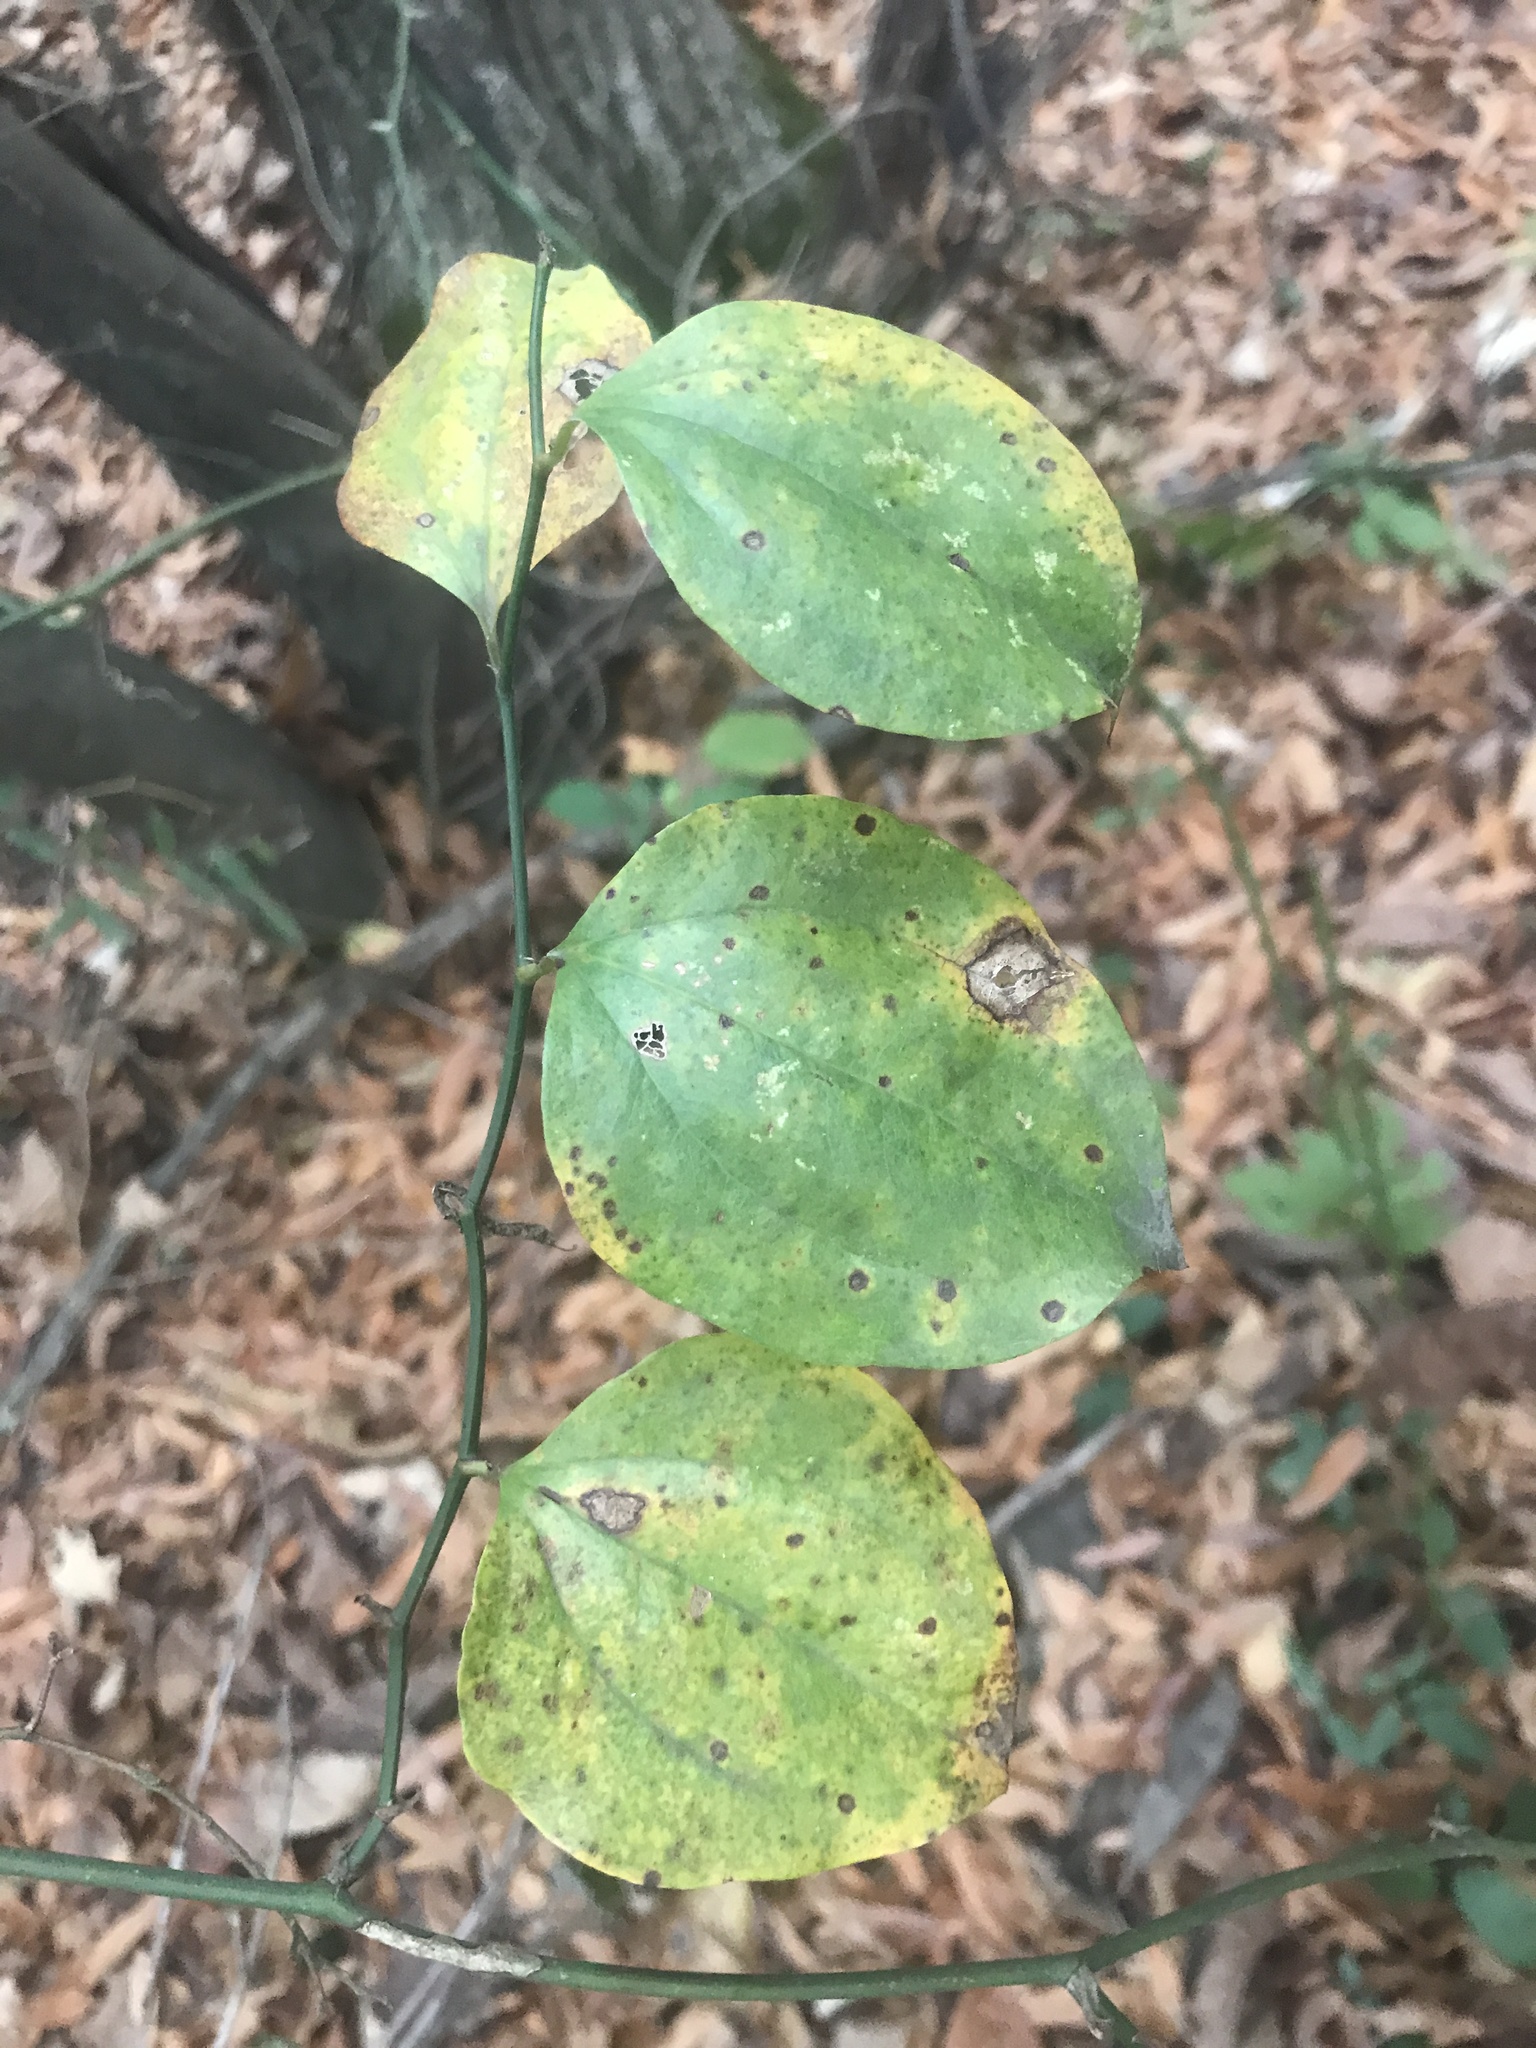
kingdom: Plantae
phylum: Tracheophyta
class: Liliopsida
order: Liliales
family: Smilacaceae
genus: Smilax
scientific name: Smilax rotundifolia
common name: Bullbriar
